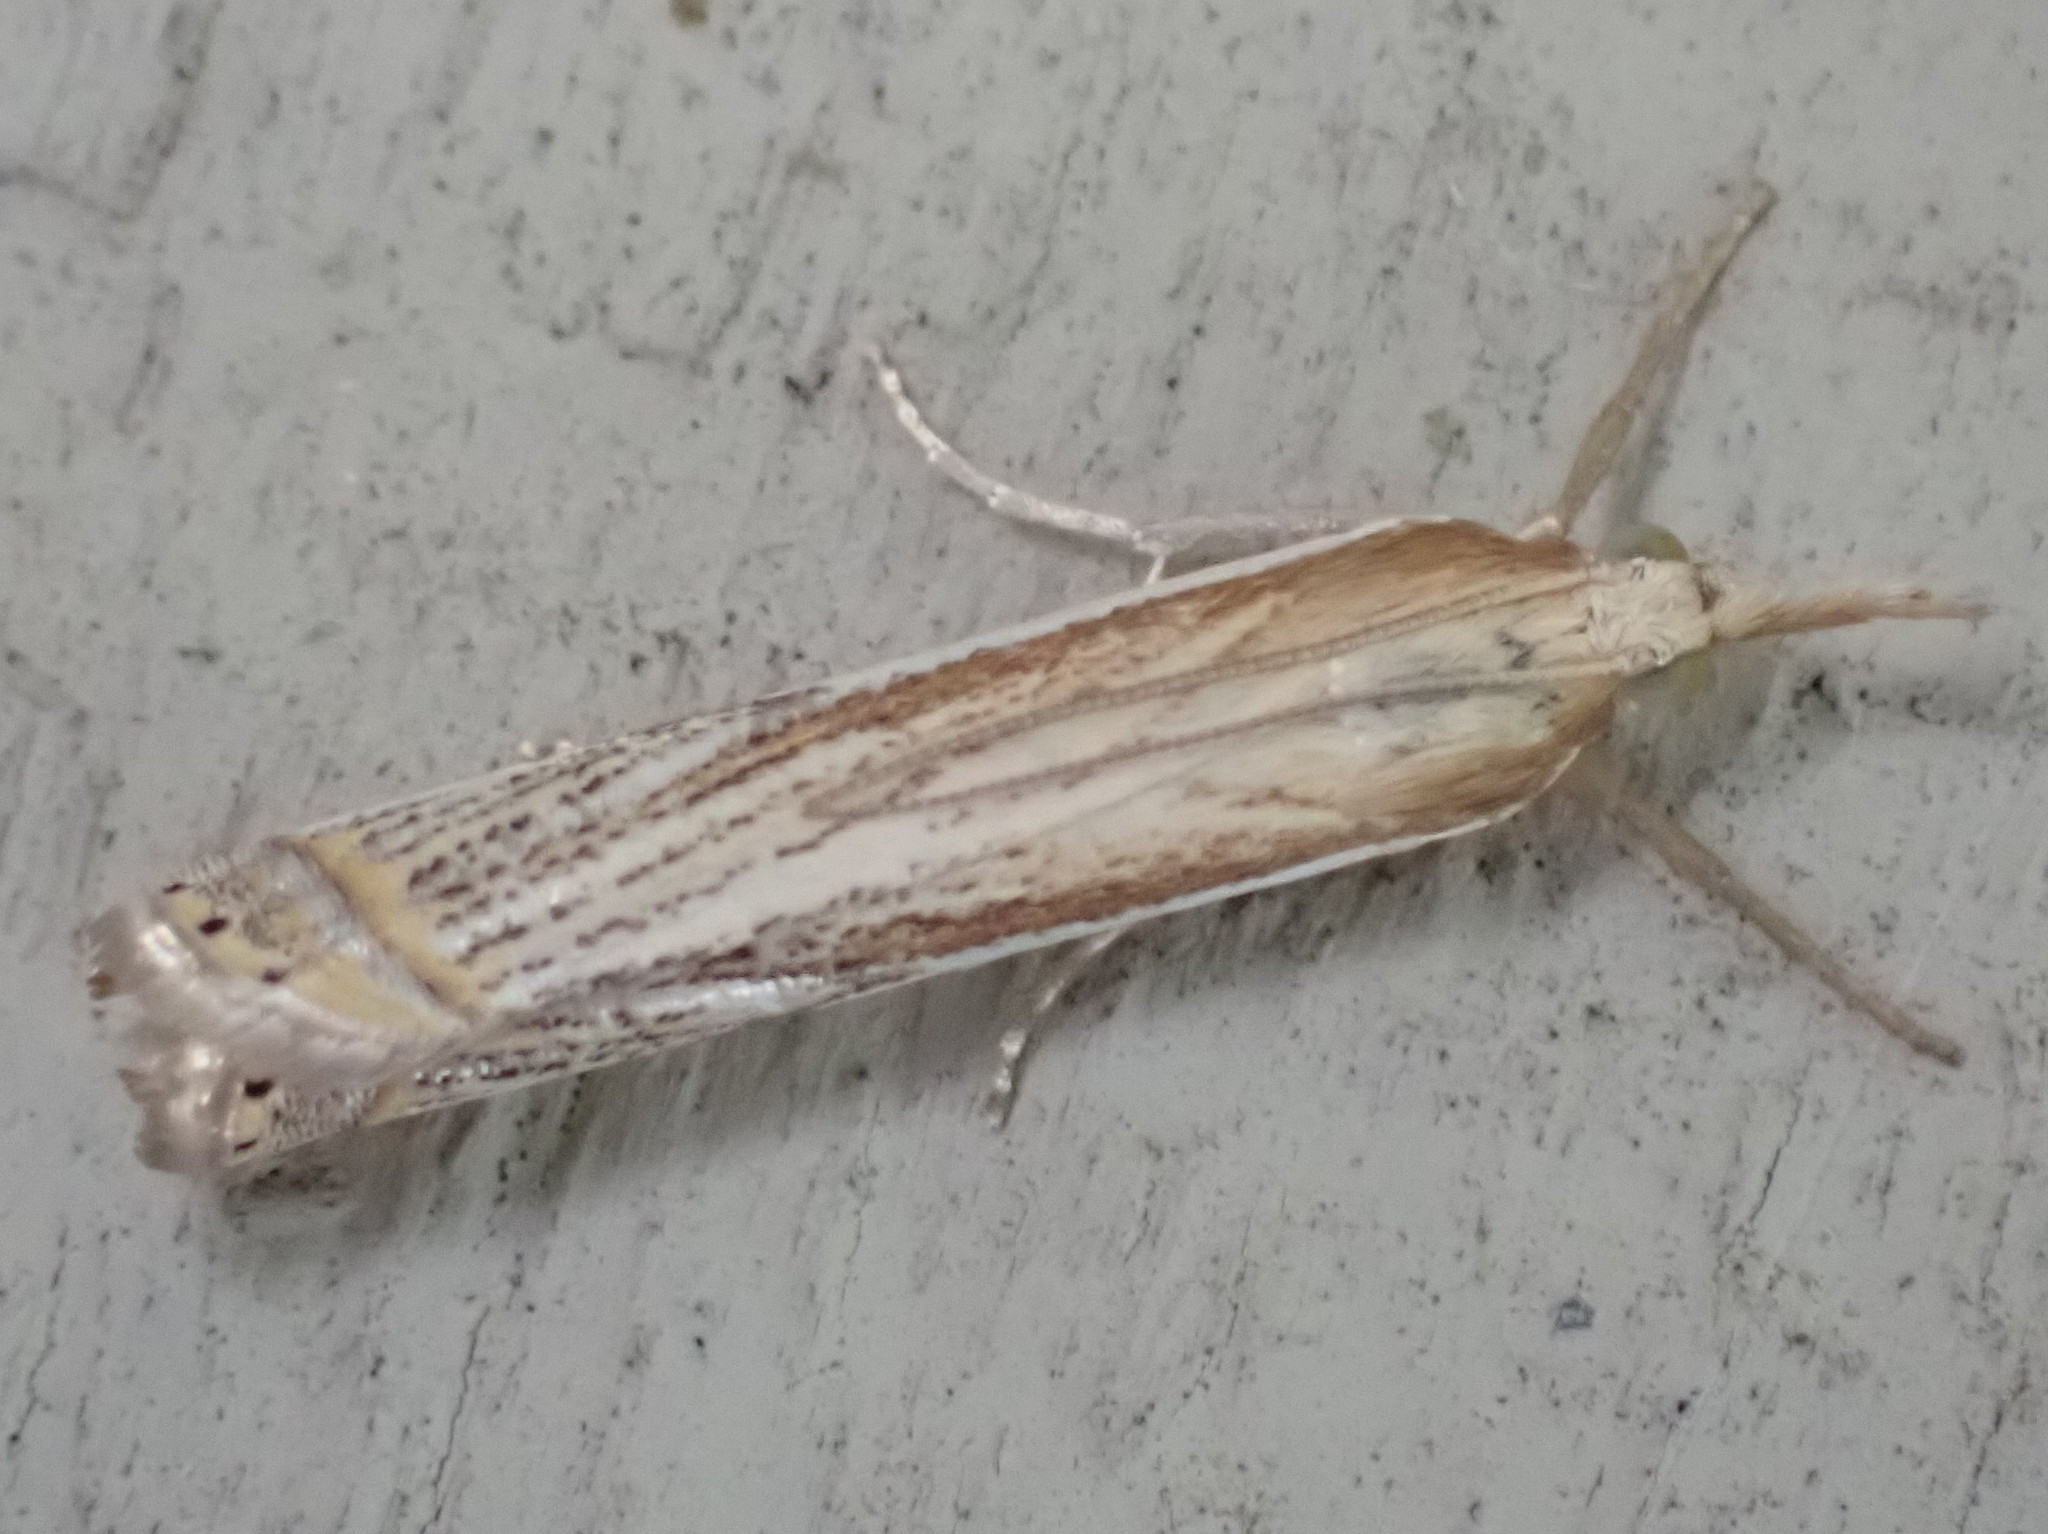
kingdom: Animalia
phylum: Arthropoda
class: Insecta
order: Lepidoptera
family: Crambidae
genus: Crambus
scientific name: Crambus saltuellus
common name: Pasture grass-veneer
